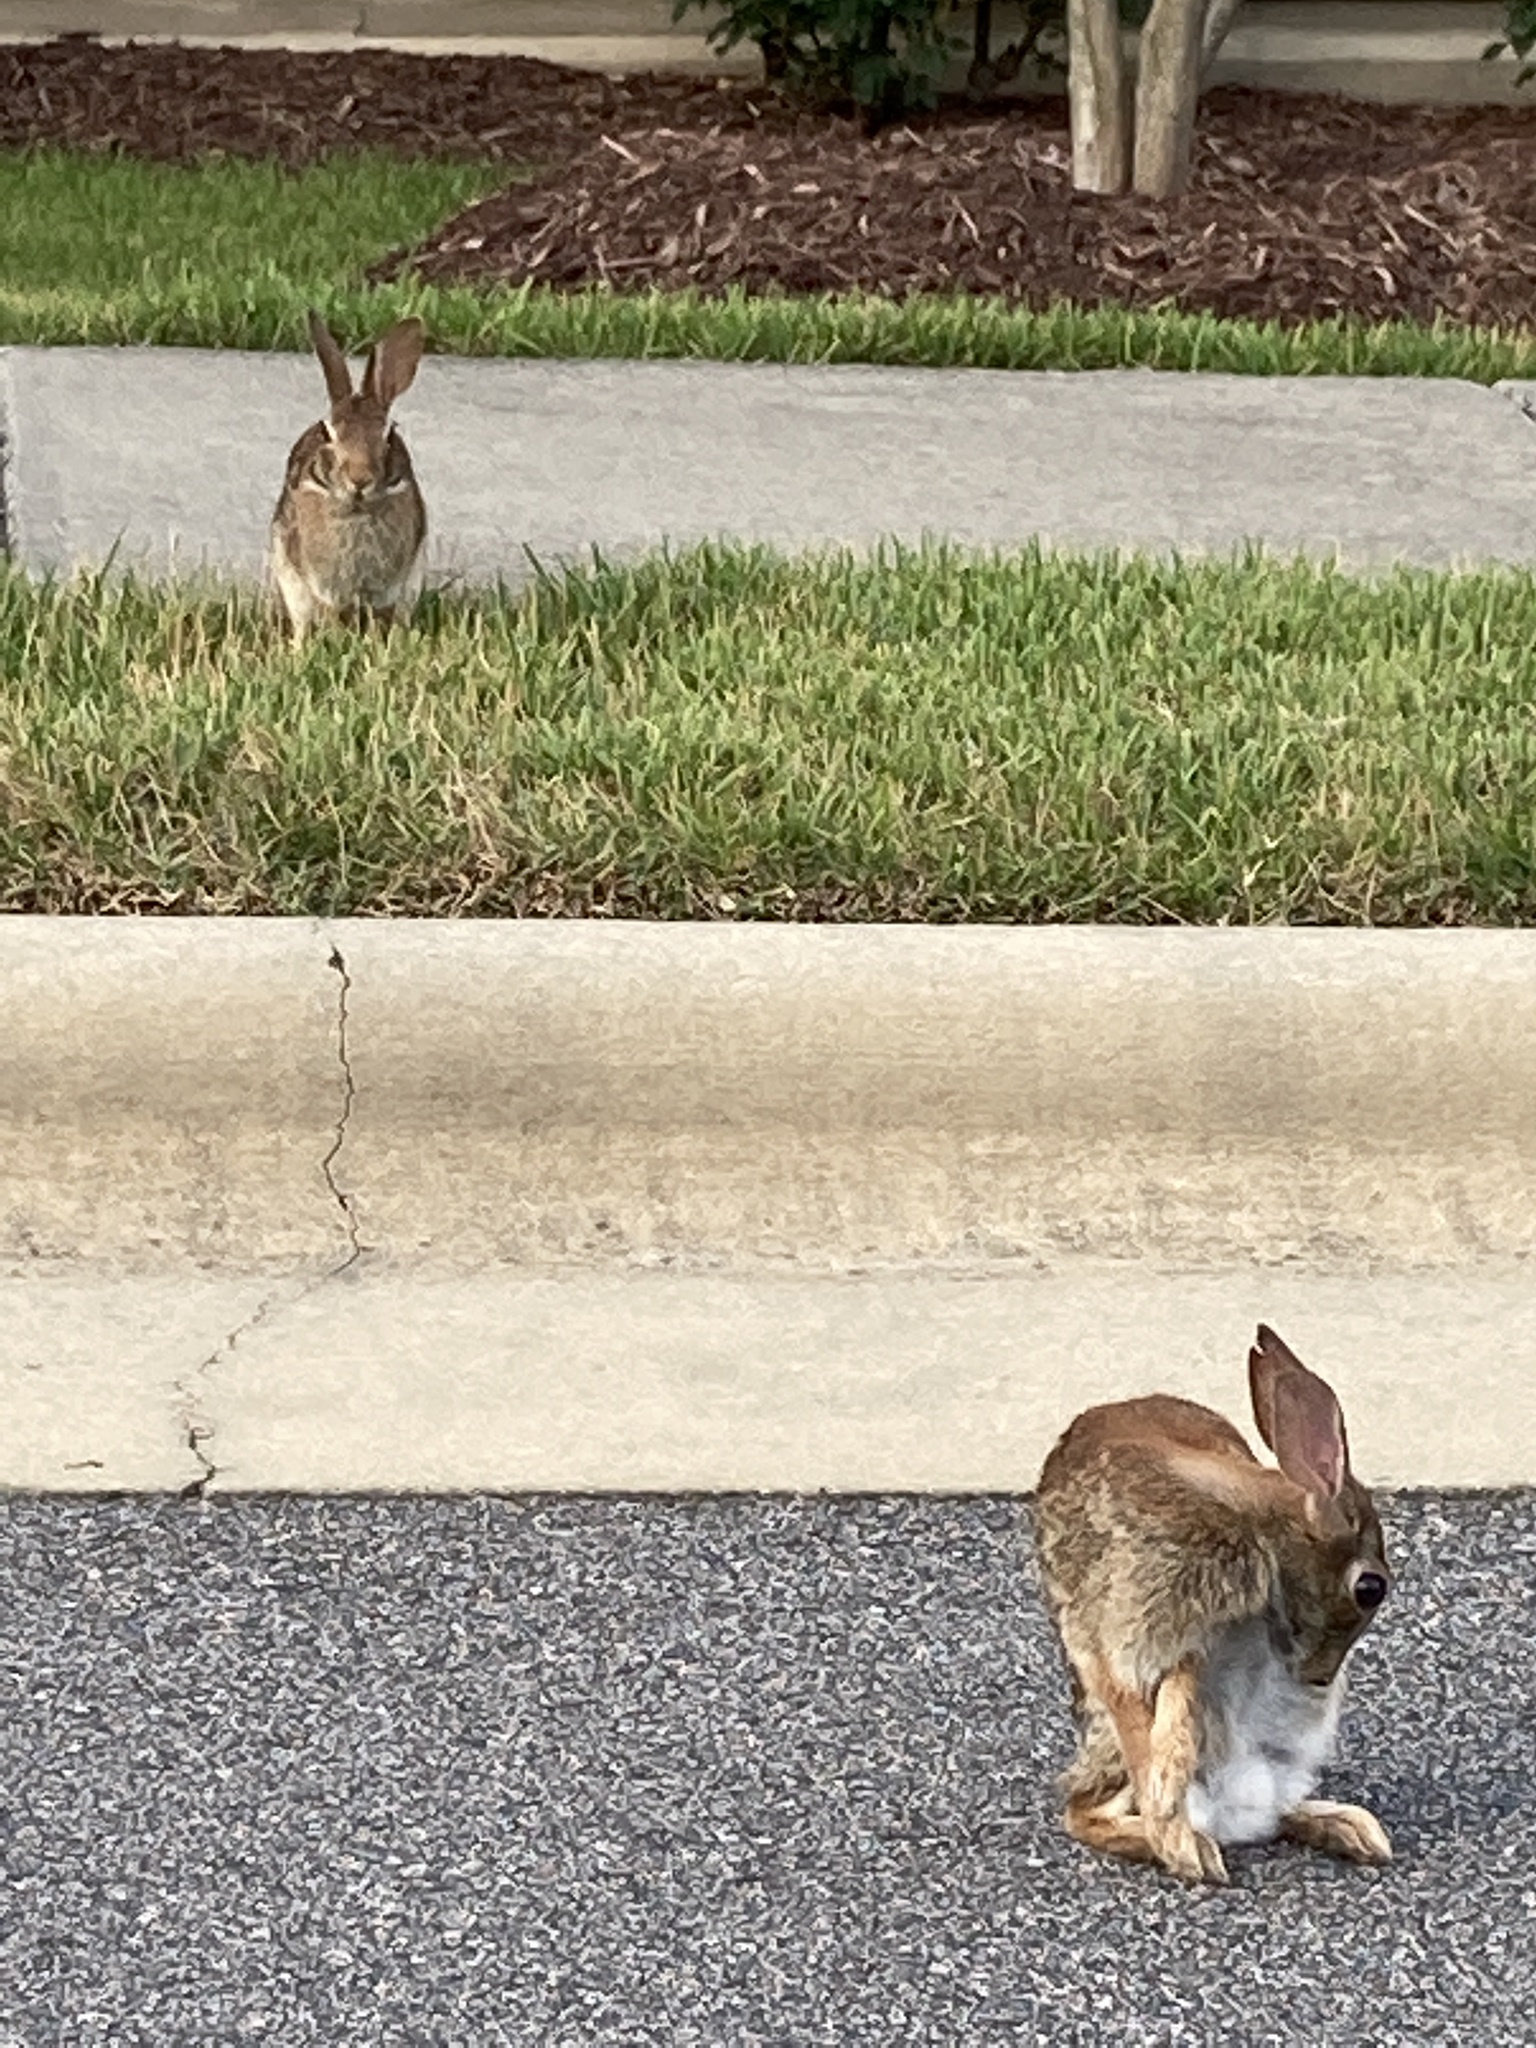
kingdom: Animalia
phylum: Chordata
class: Mammalia
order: Lagomorpha
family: Leporidae
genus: Sylvilagus
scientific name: Sylvilagus floridanus
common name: Eastern cottontail
